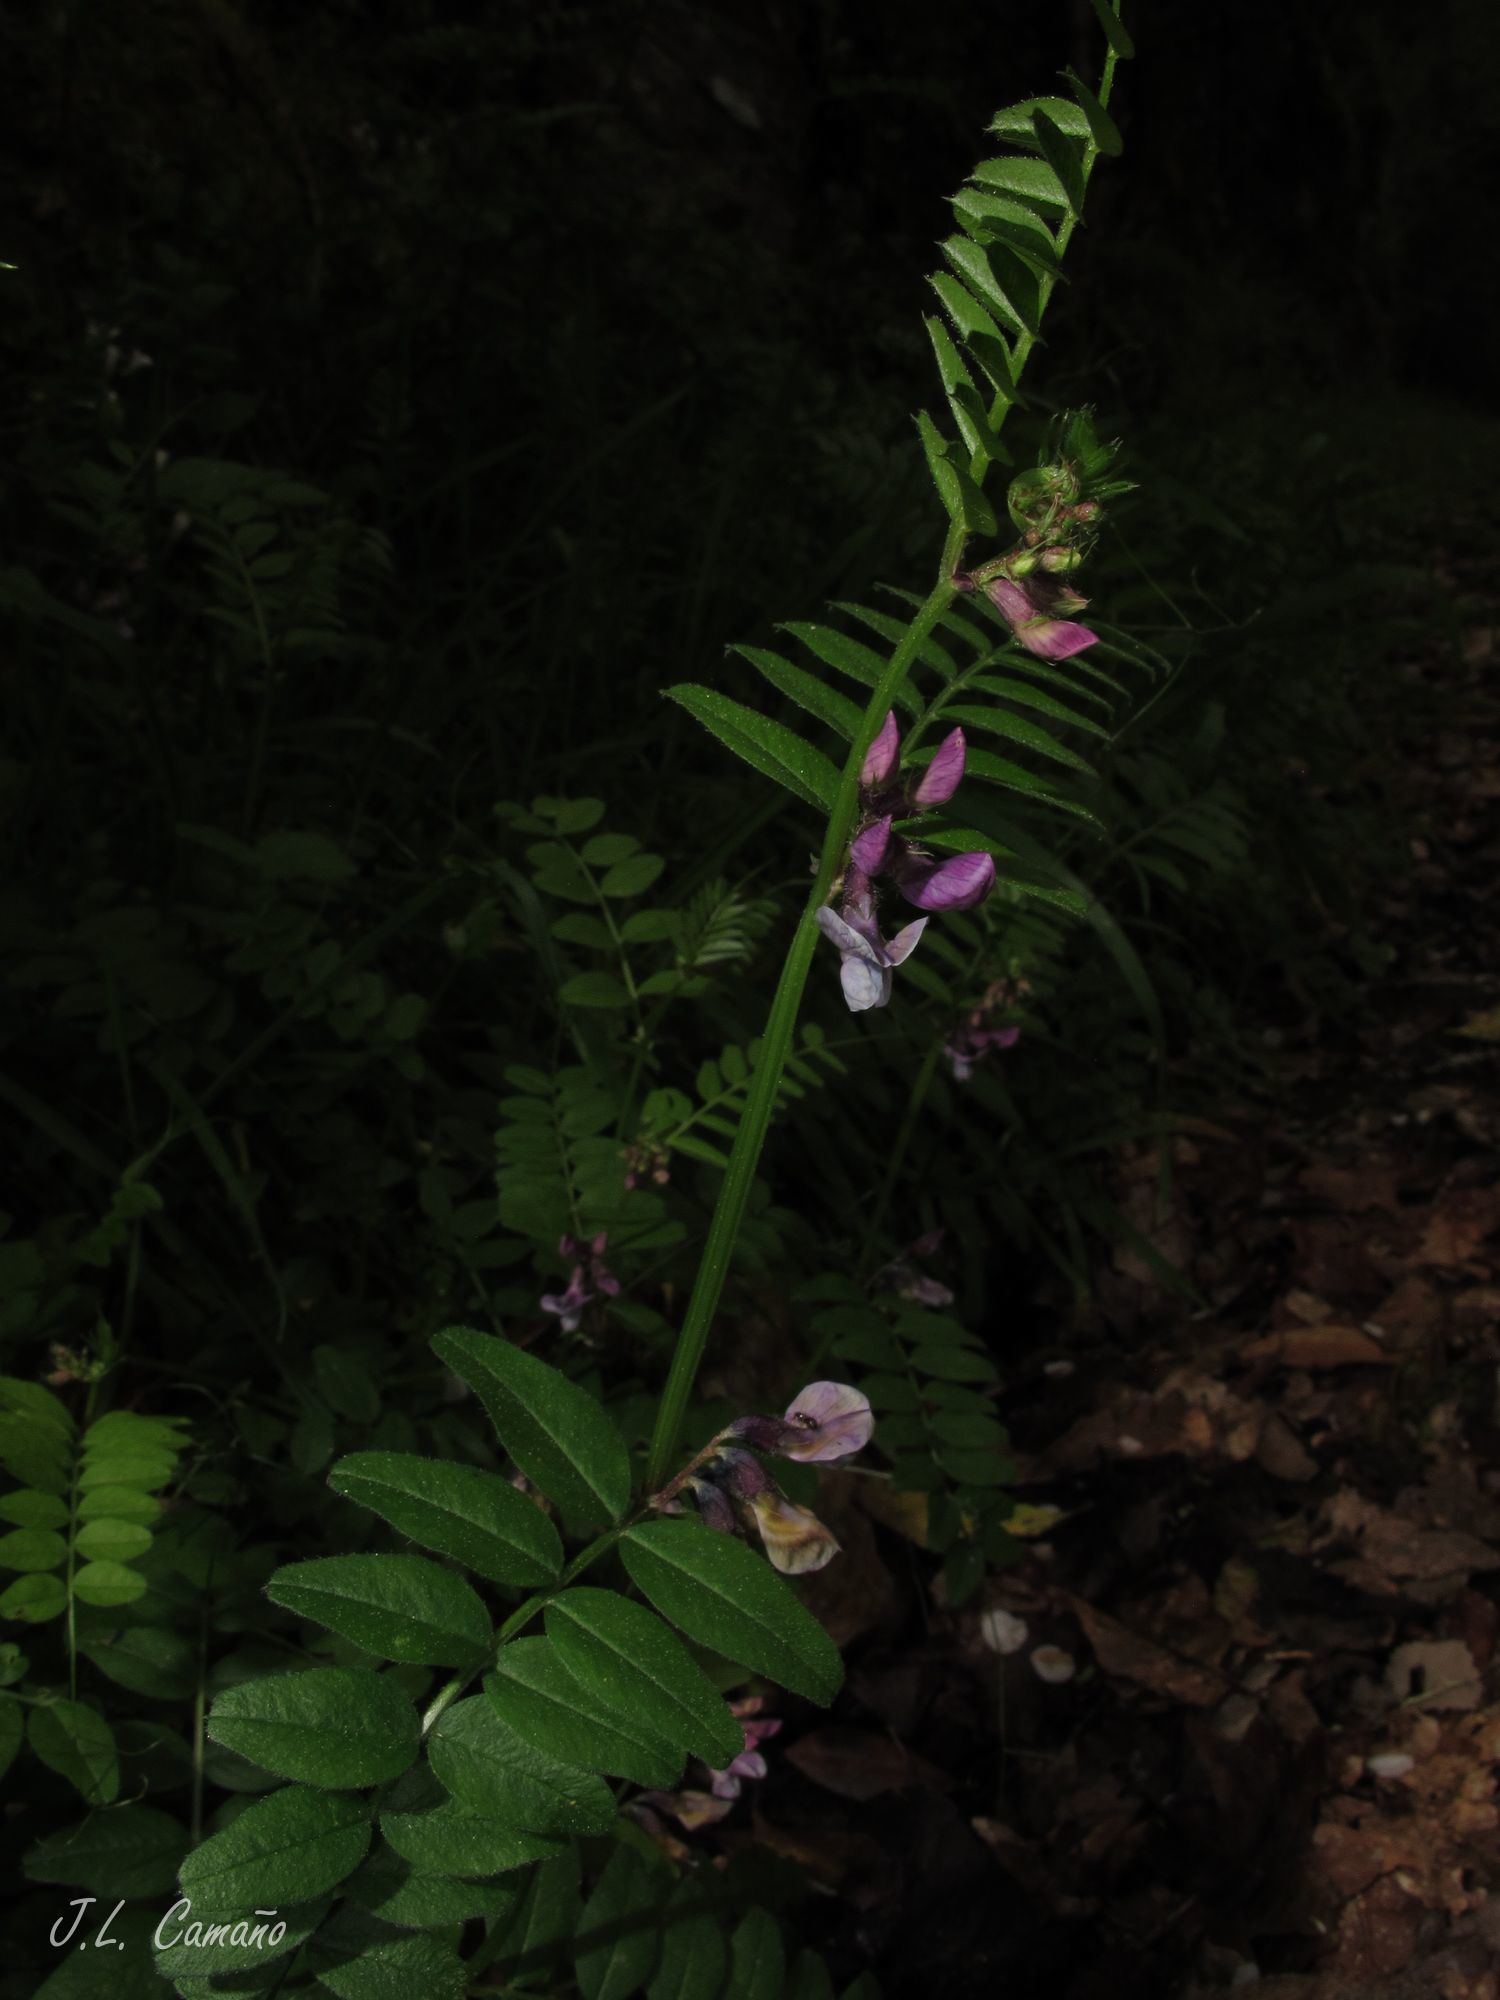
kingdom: Plantae
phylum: Tracheophyta
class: Magnoliopsida
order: Fabales
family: Fabaceae
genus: Vicia
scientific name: Vicia sepium
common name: Bush vetch
